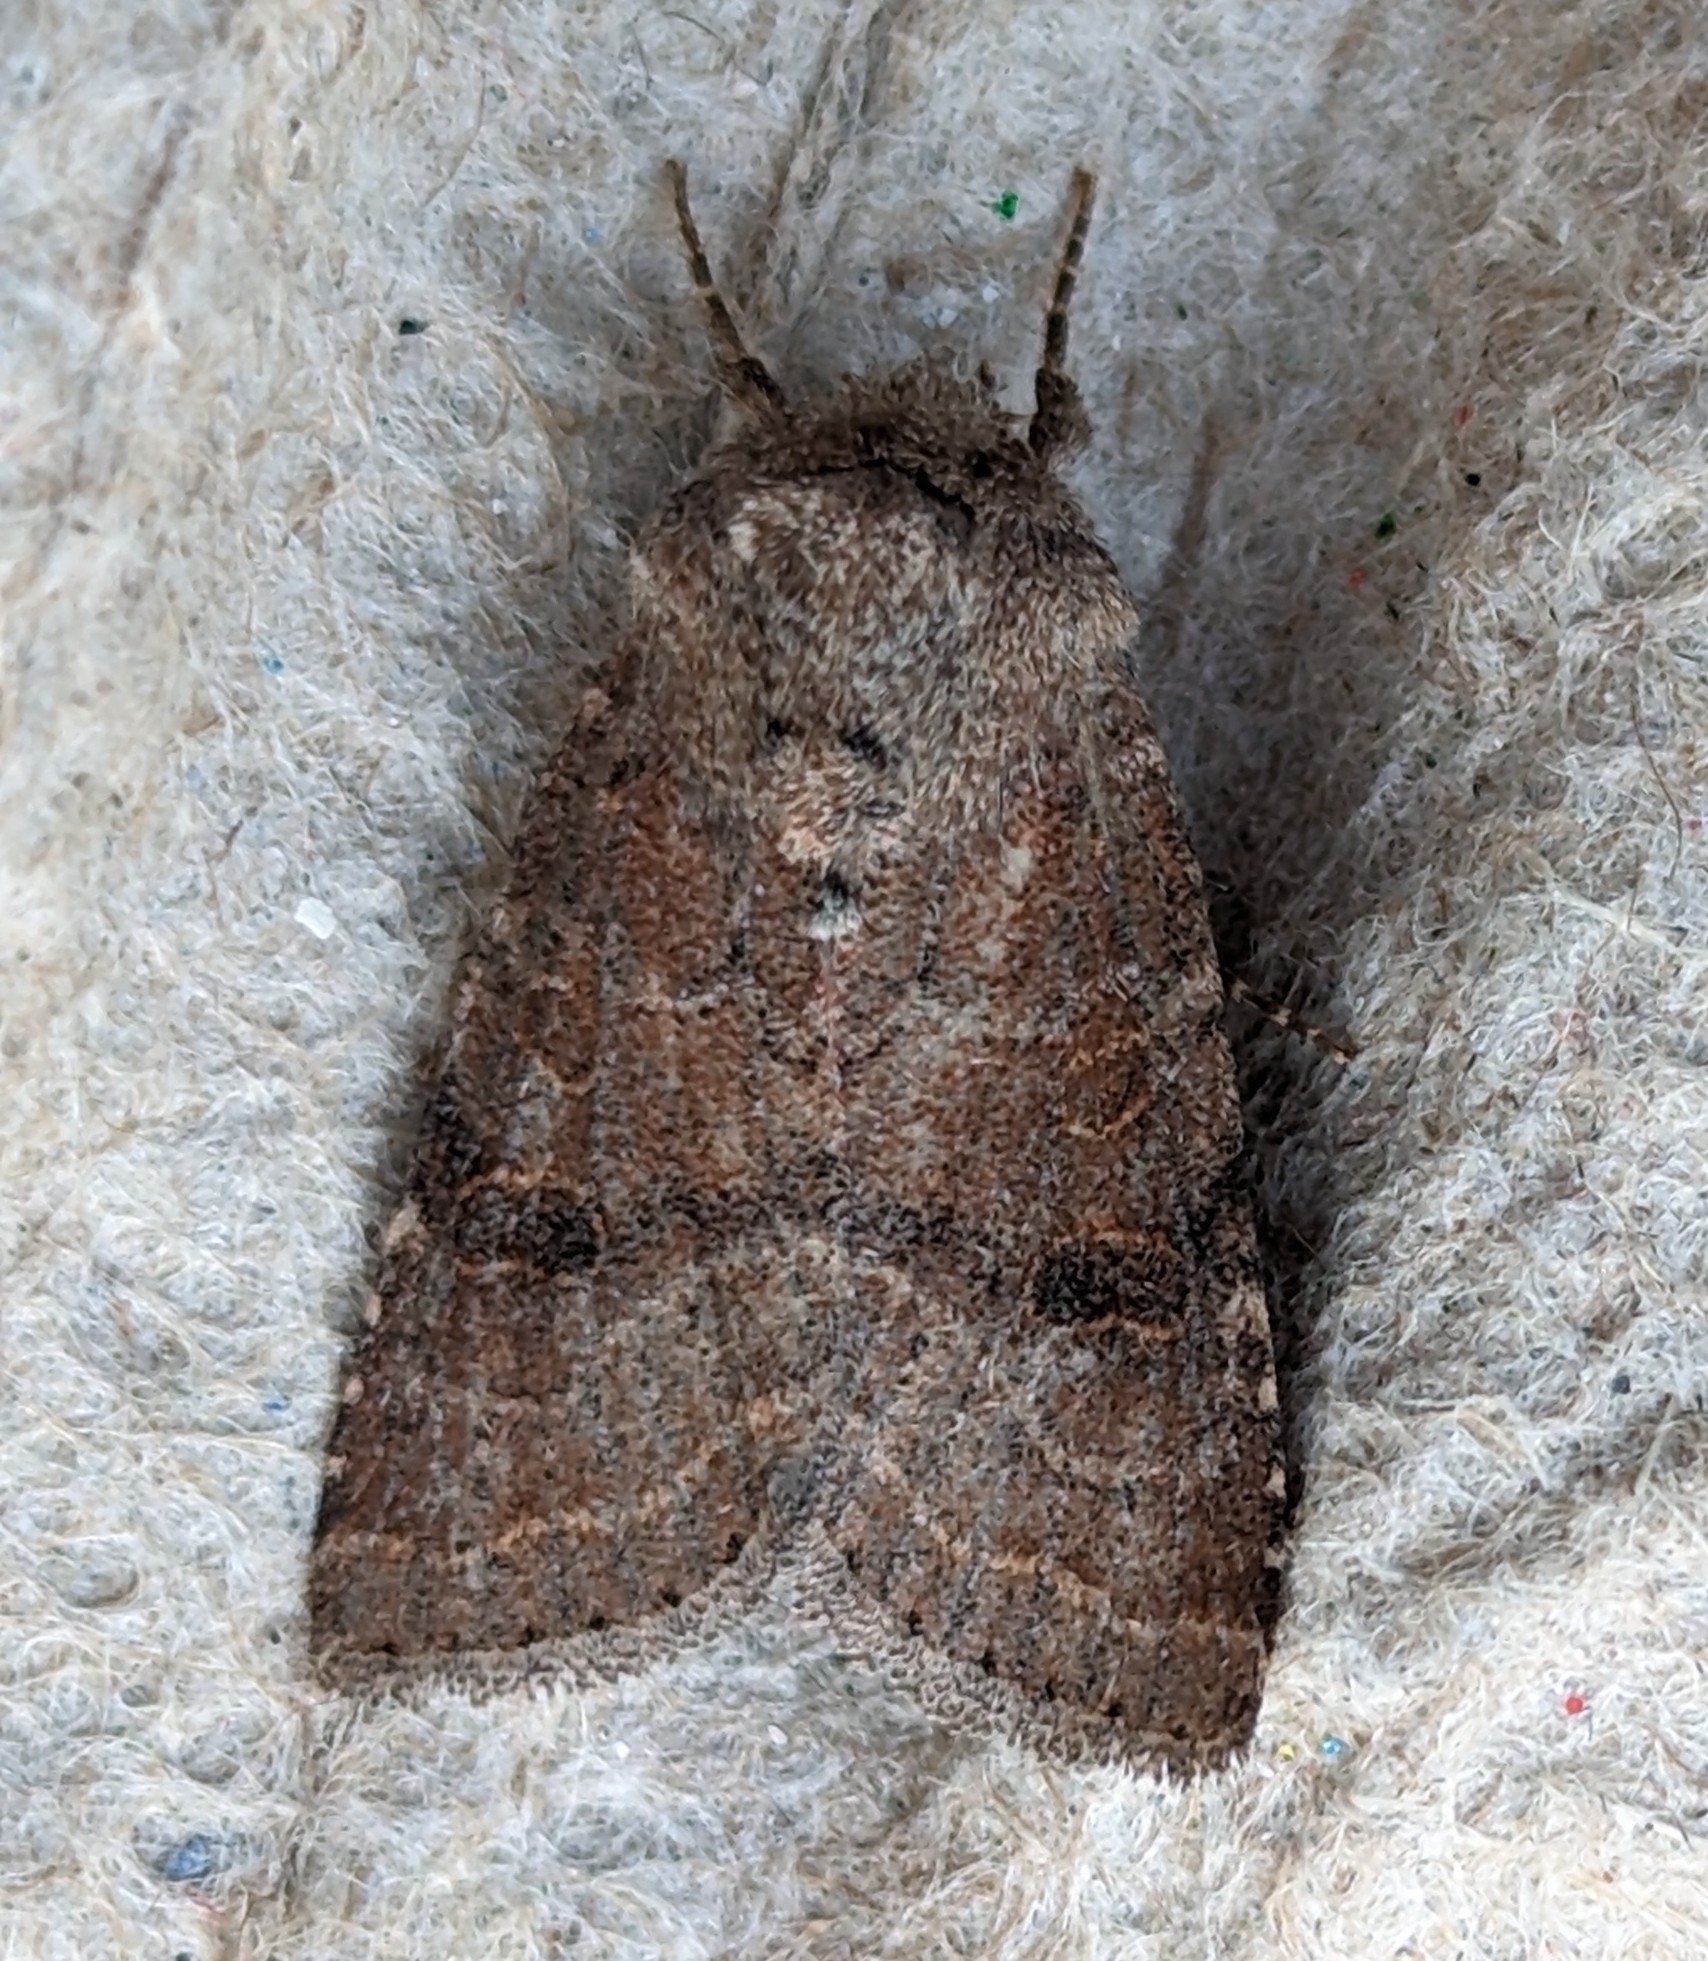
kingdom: Animalia
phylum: Arthropoda
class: Insecta
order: Lepidoptera
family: Noctuidae
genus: Trichopolia
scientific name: Trichopolia
